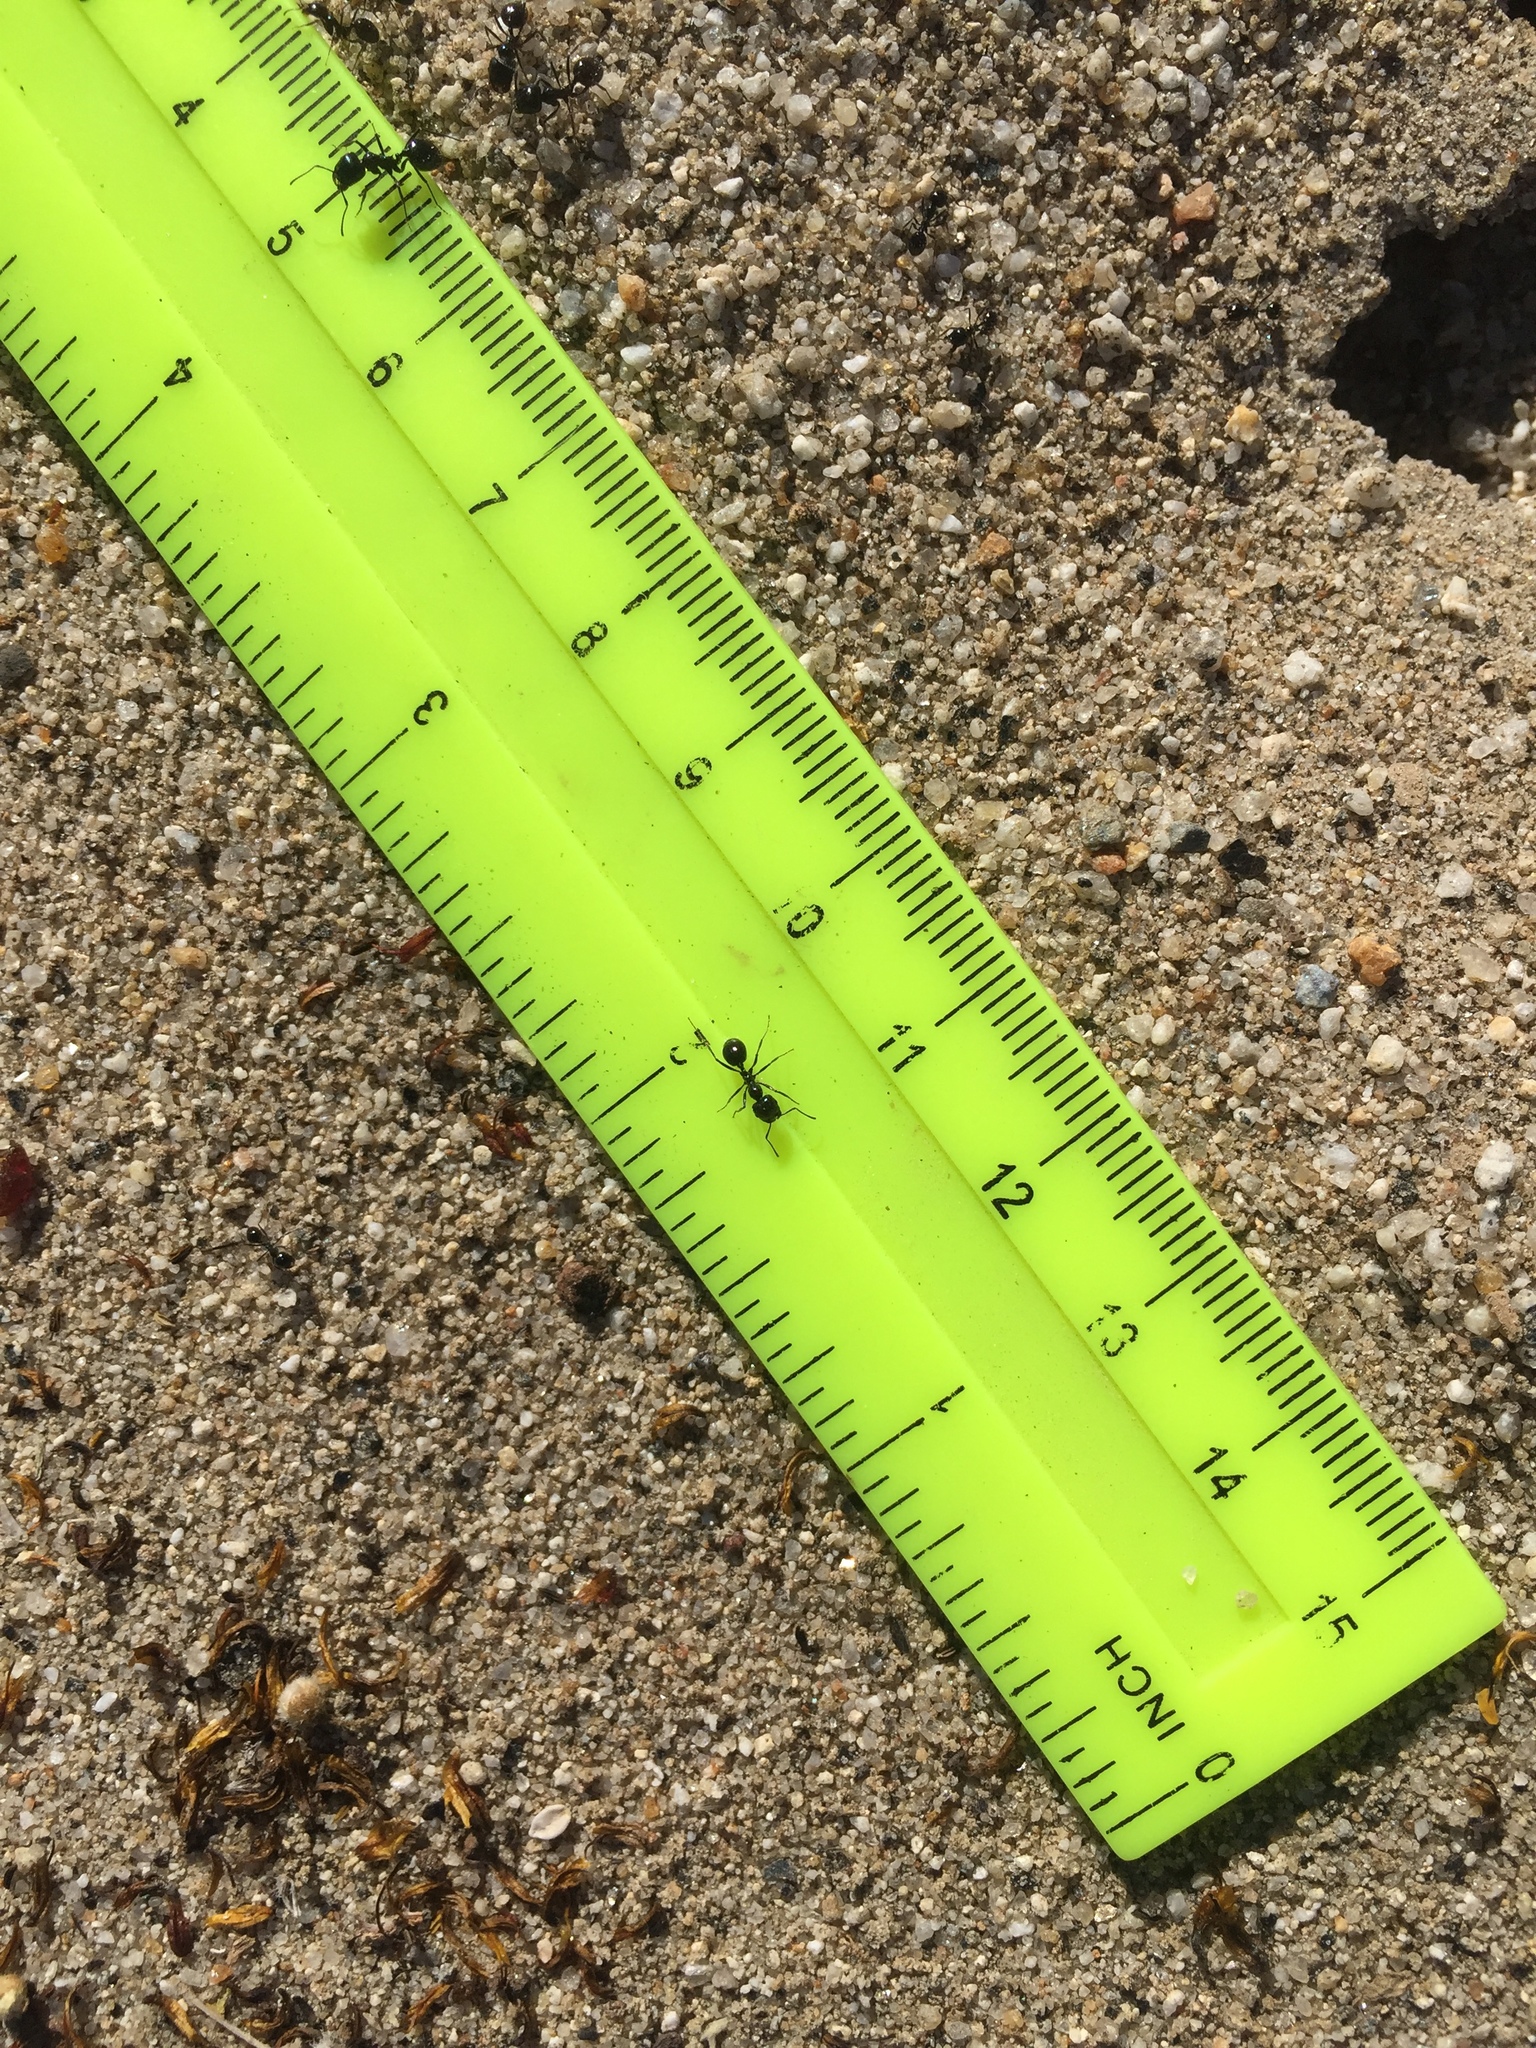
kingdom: Animalia
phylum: Arthropoda
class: Insecta
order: Hymenoptera
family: Formicidae
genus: Messor
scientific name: Messor pergandei
